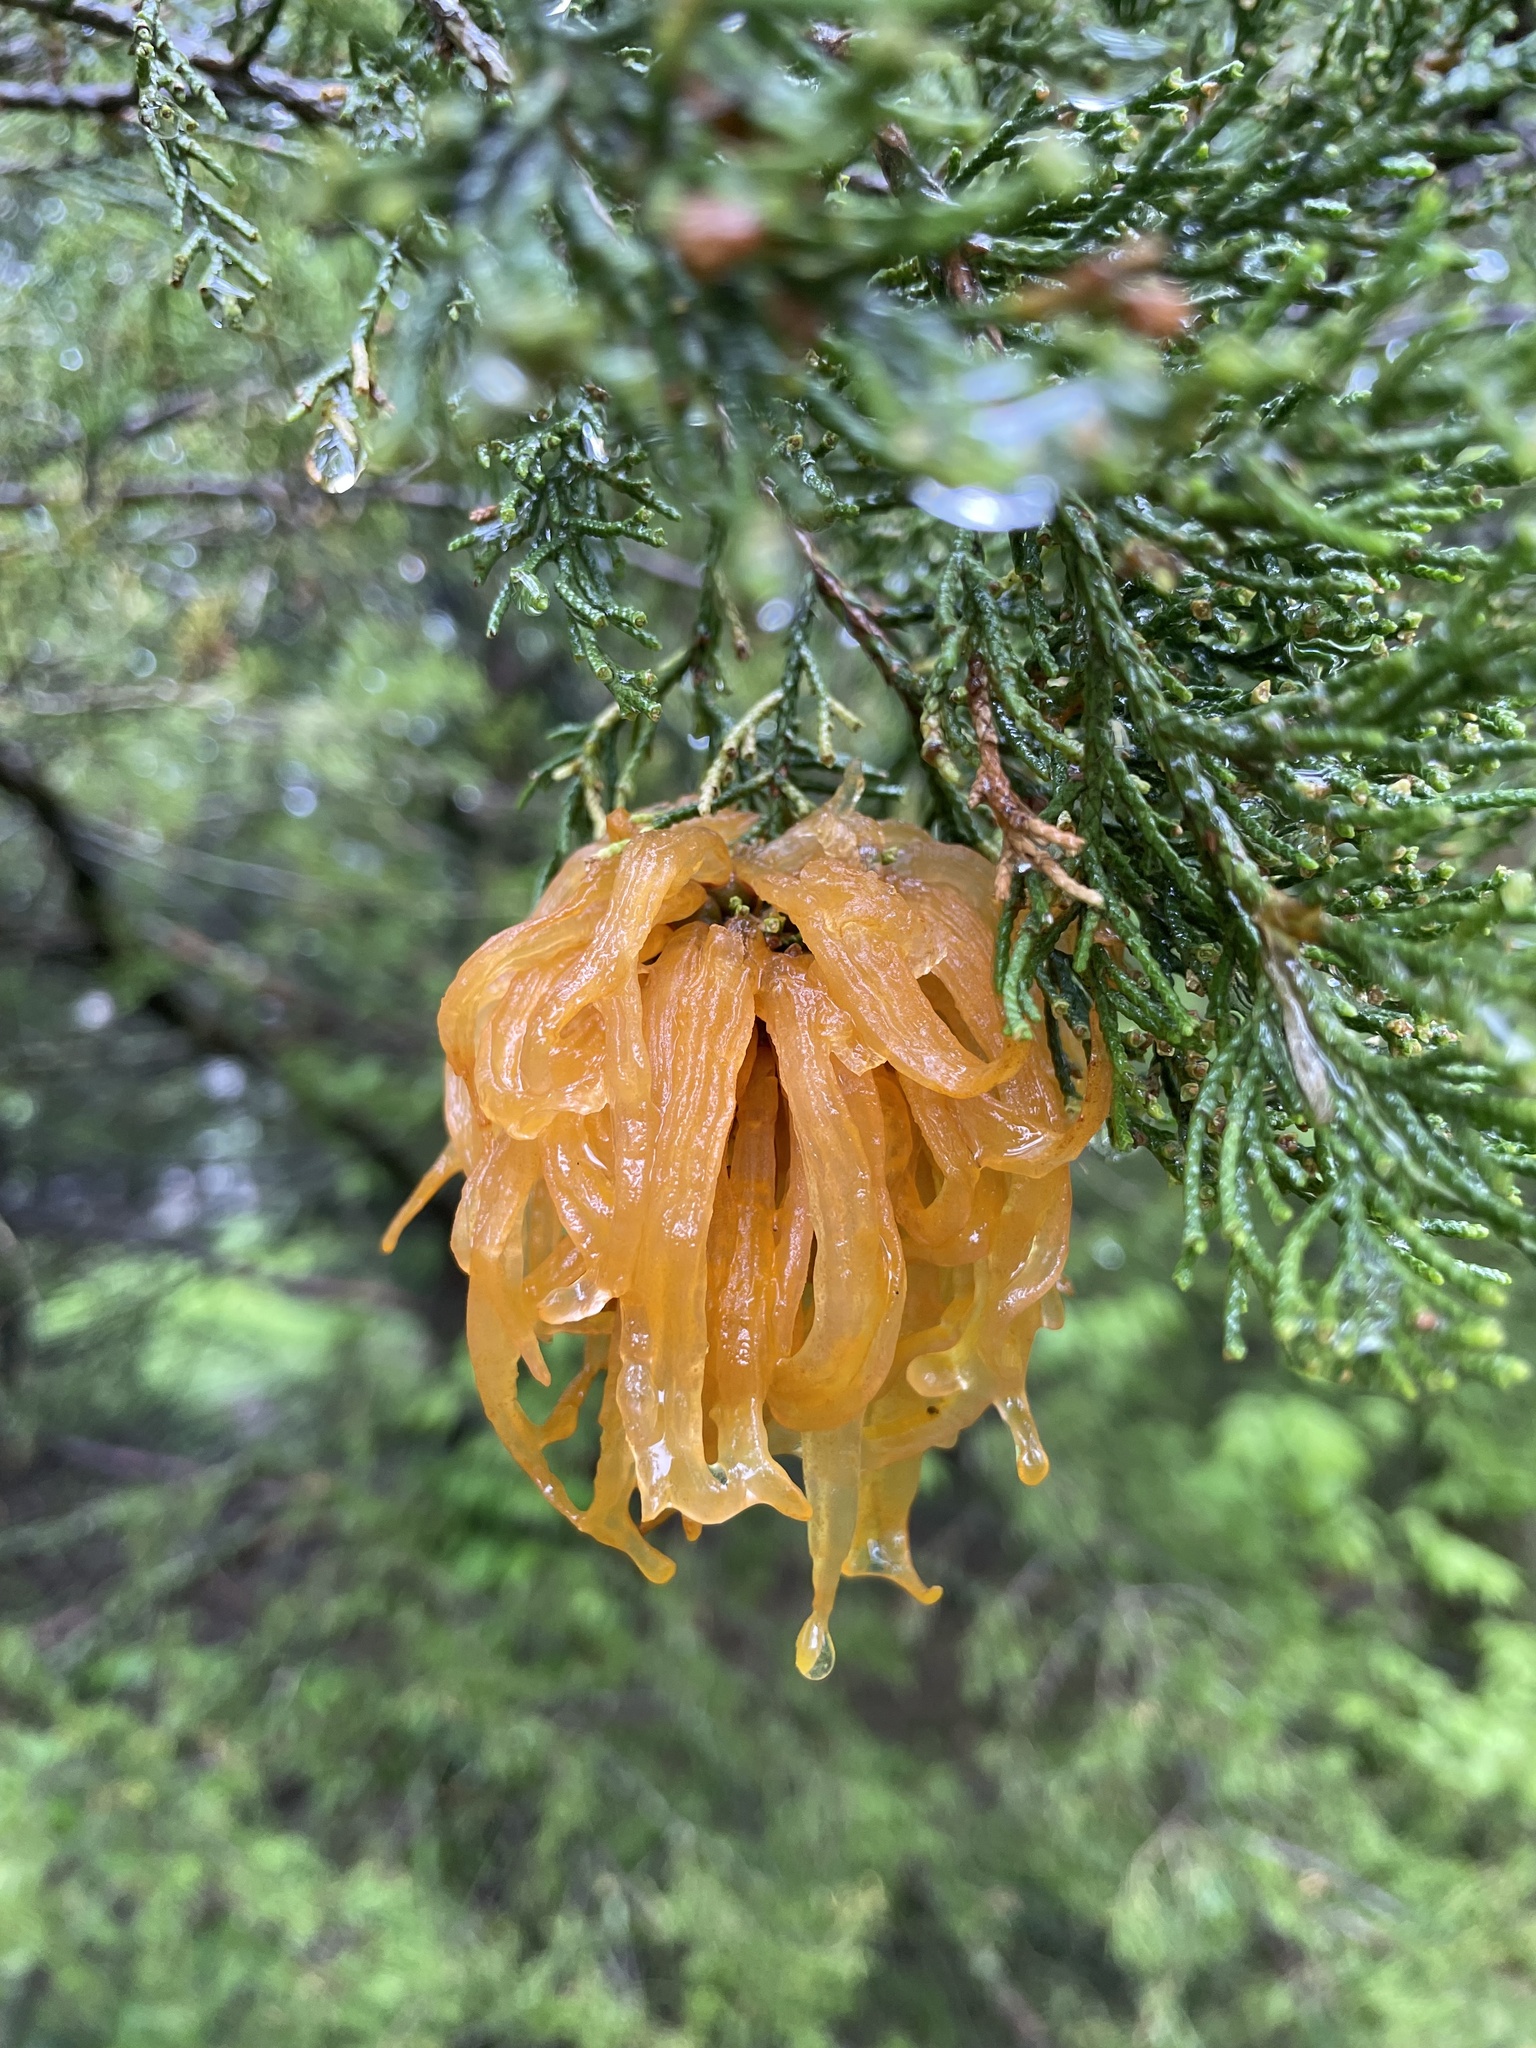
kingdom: Fungi
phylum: Basidiomycota
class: Pucciniomycetes
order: Pucciniales
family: Gymnosporangiaceae
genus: Gymnosporangium
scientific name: Gymnosporangium juniperi-virginianae
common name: Juniper-apple rust
